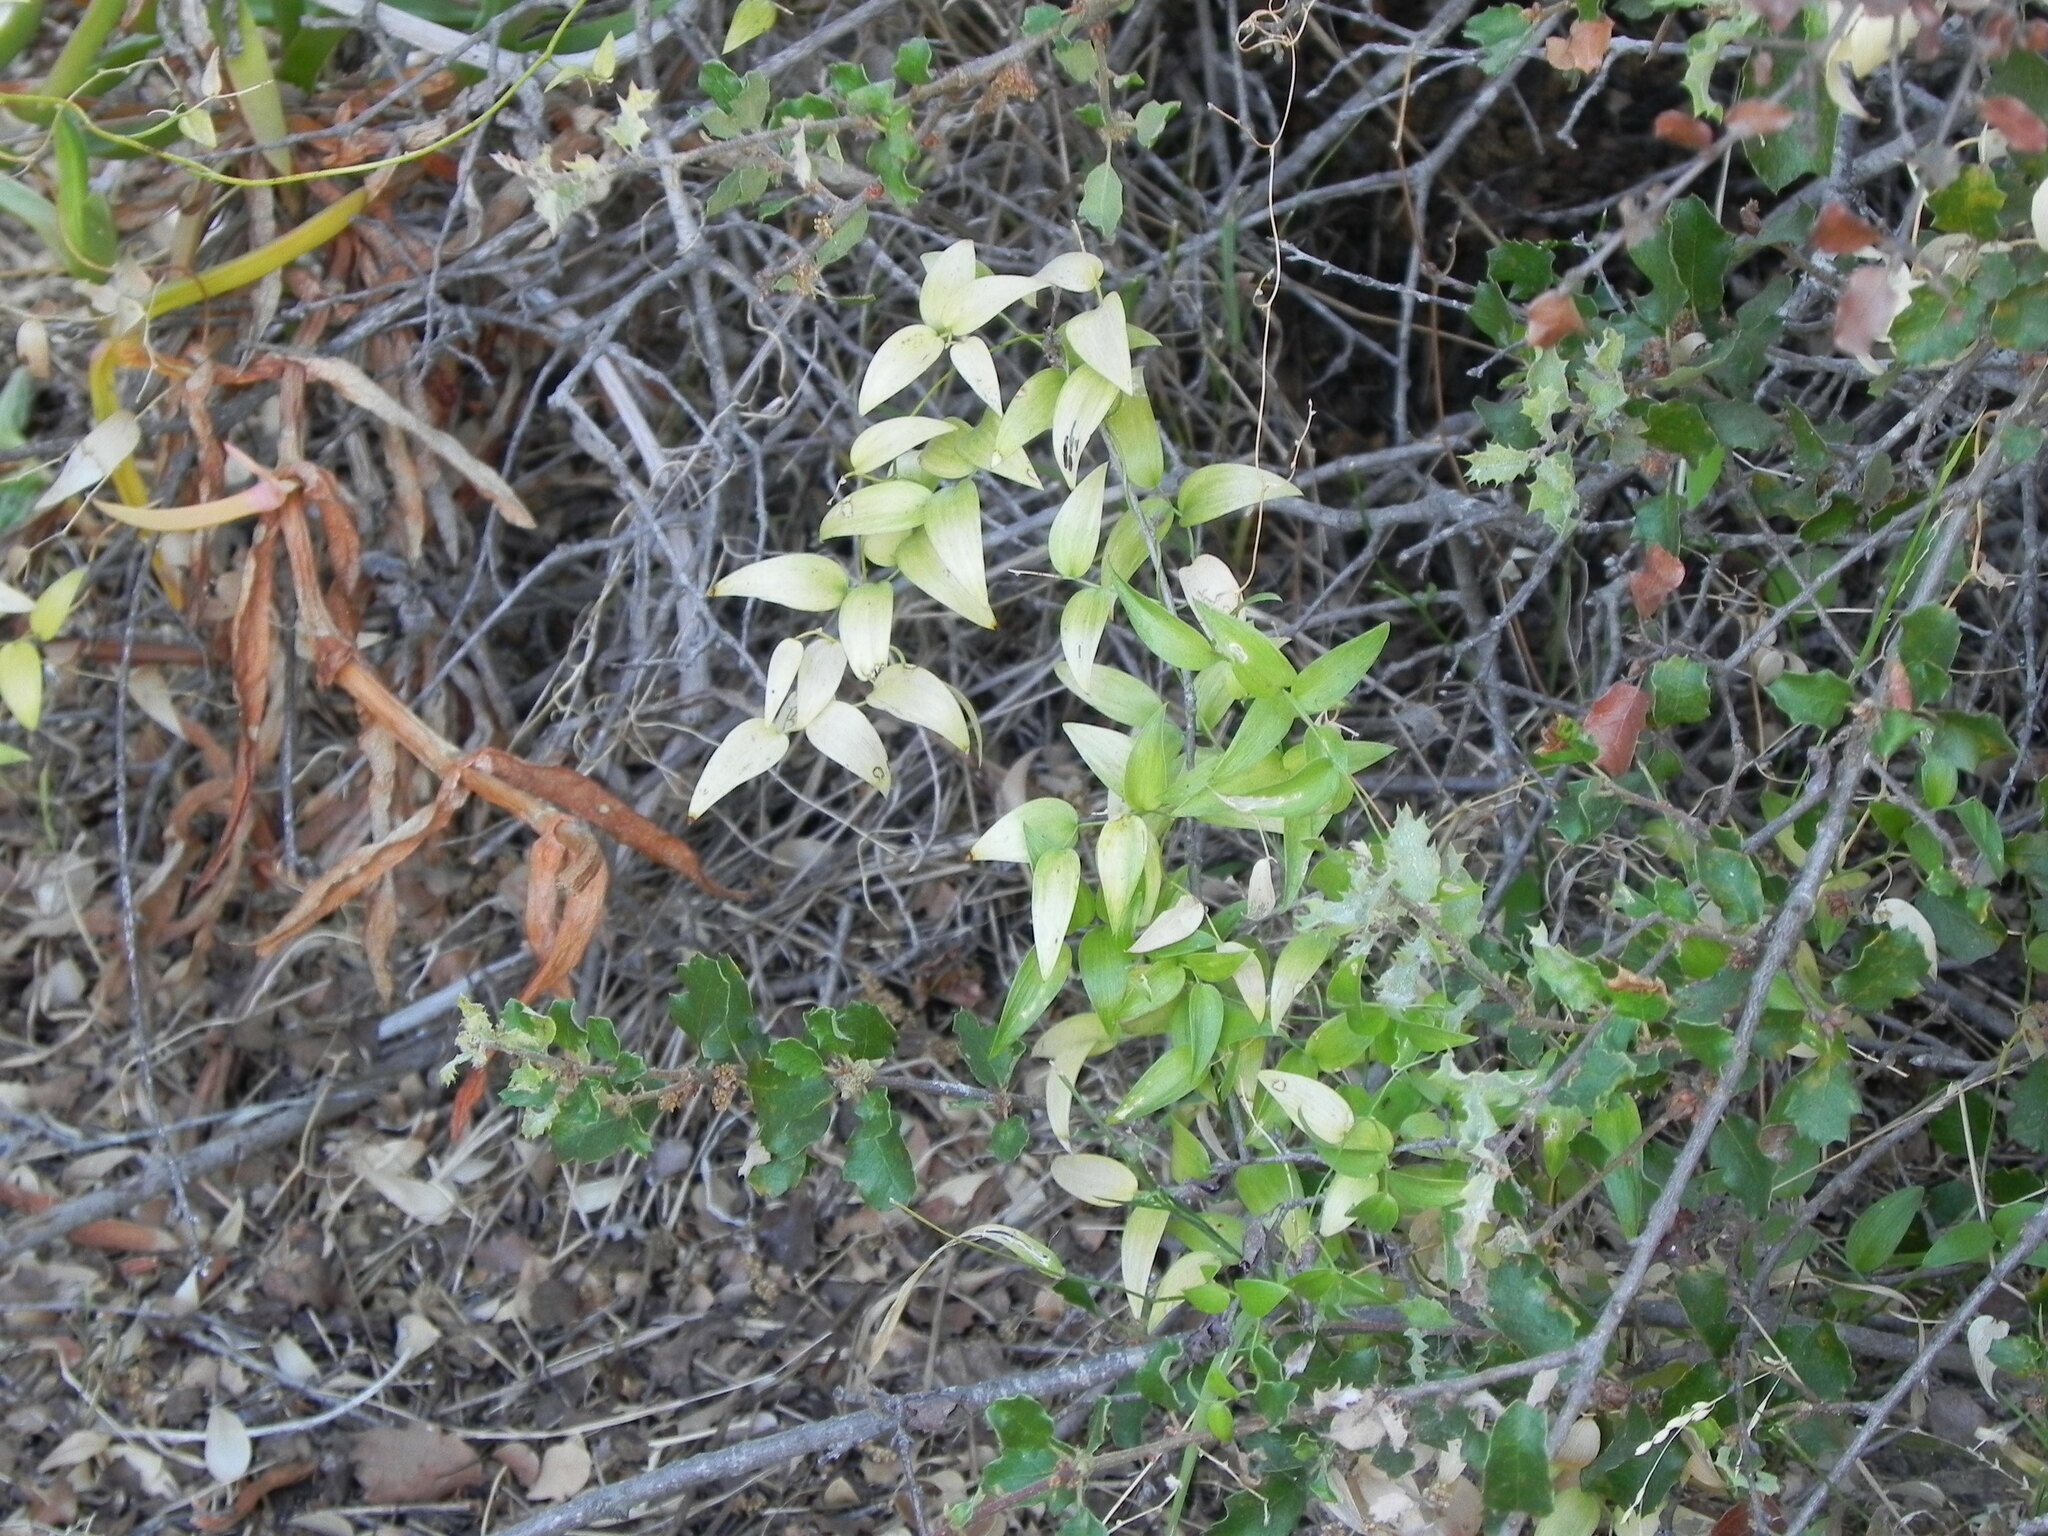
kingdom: Plantae
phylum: Tracheophyta
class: Liliopsida
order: Asparagales
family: Asparagaceae
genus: Asparagus
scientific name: Asparagus asparagoides
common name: African asparagus fern
